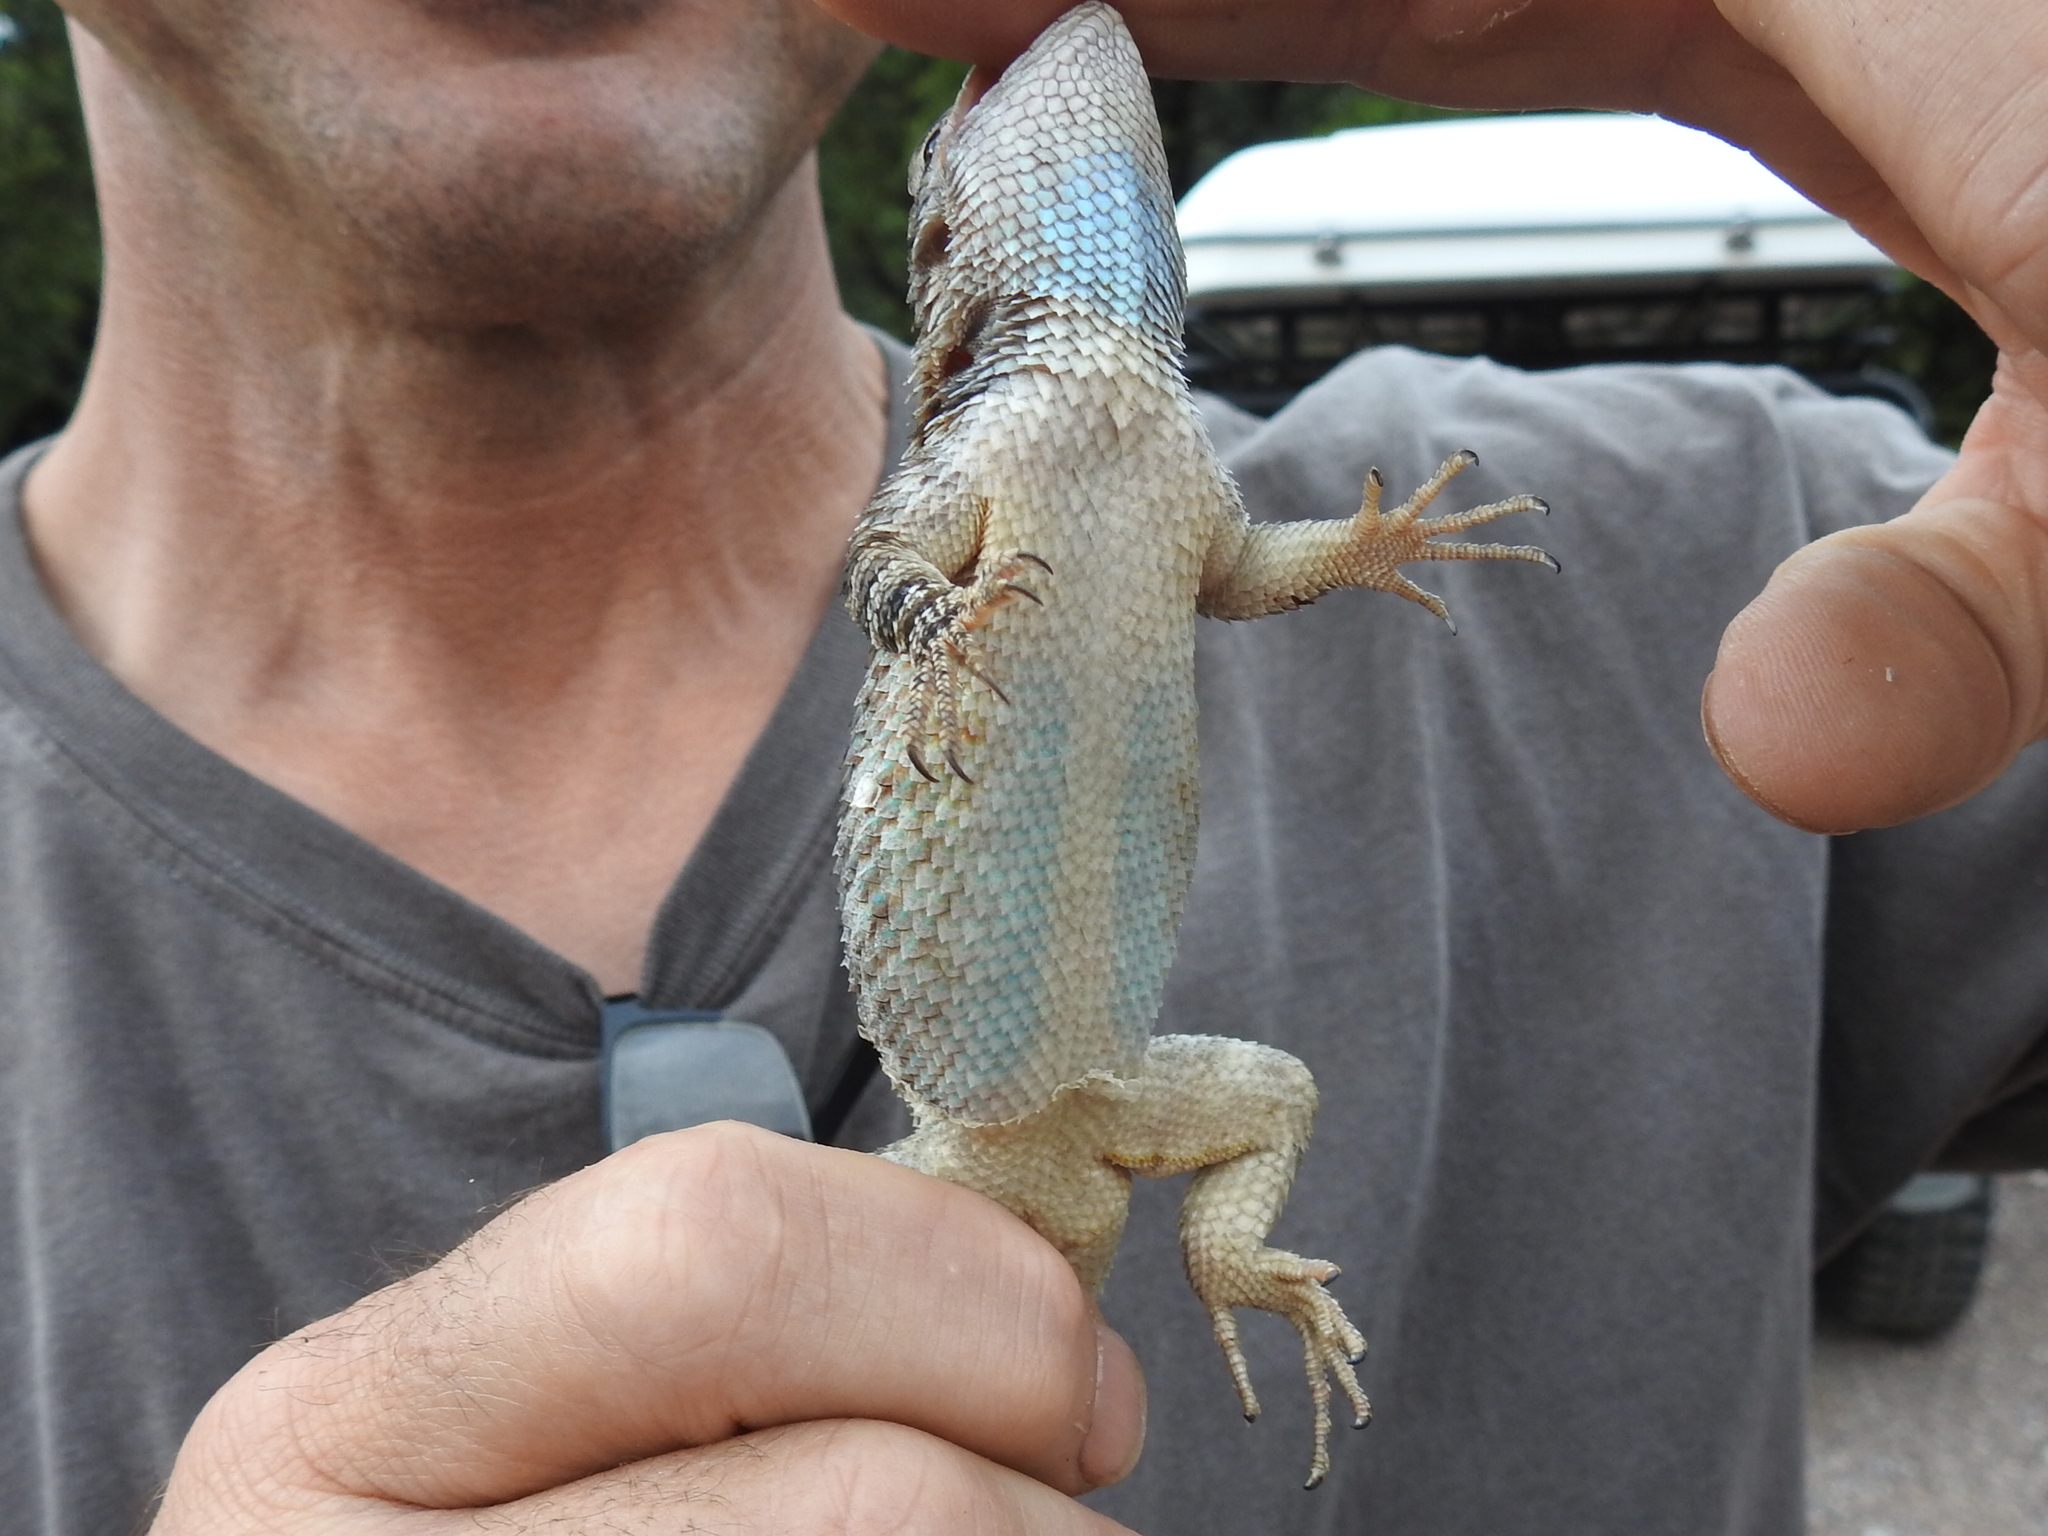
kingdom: Animalia
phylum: Chordata
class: Squamata
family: Phrynosomatidae
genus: Sceloporus
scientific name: Sceloporus clarkii
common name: Clark's spiny lizard
